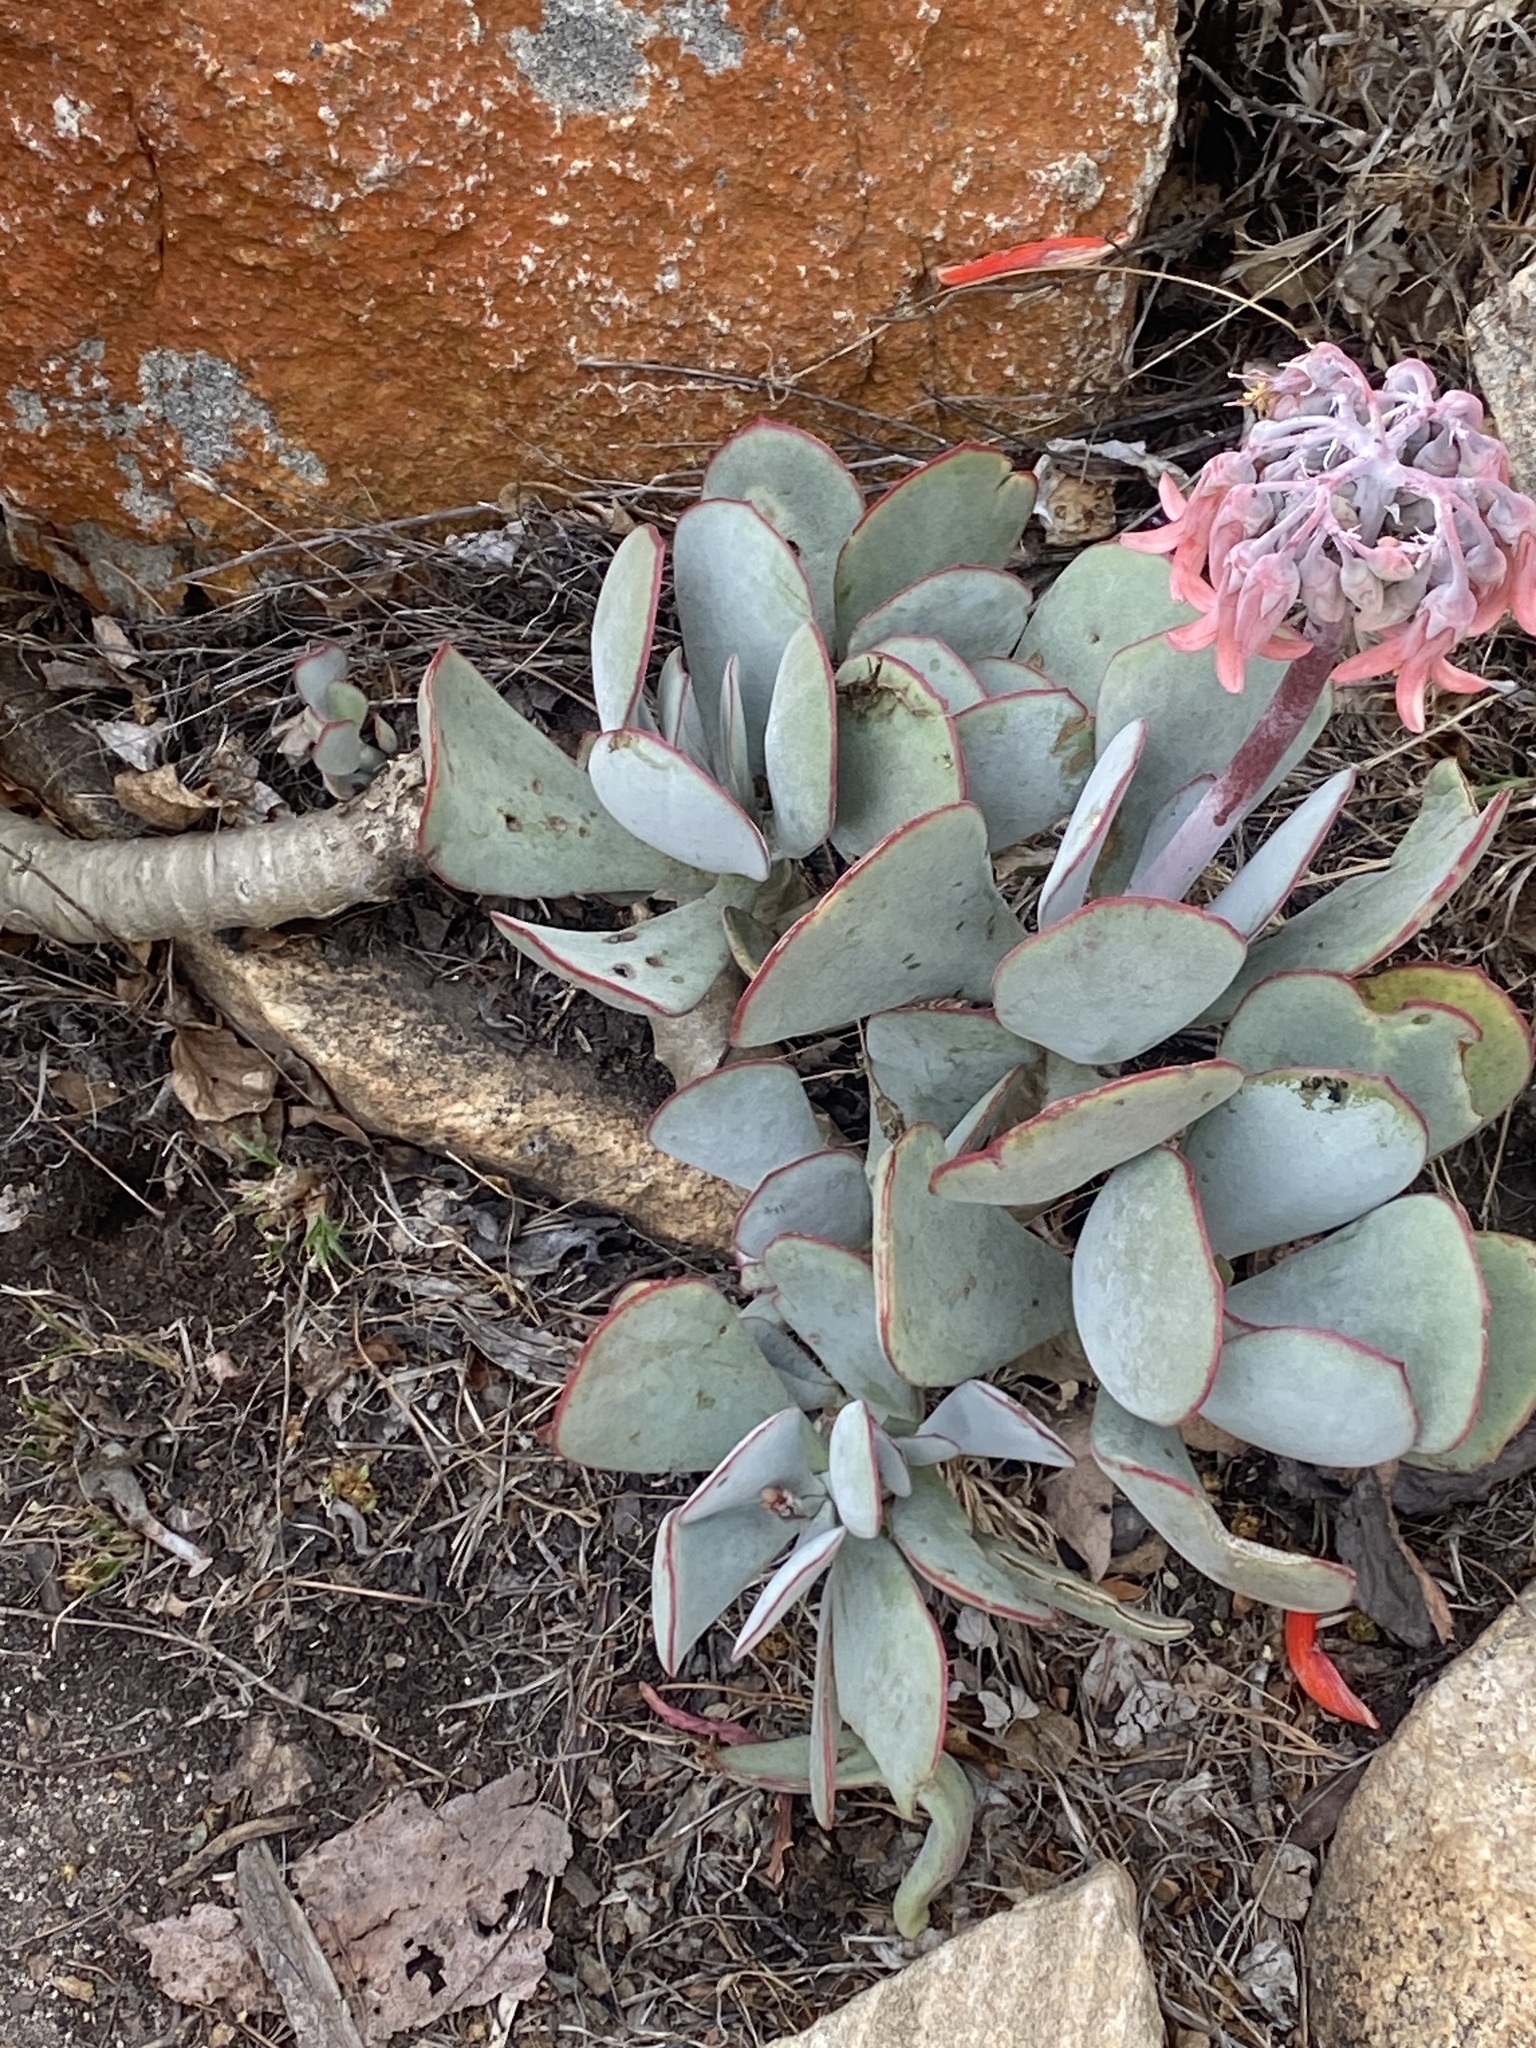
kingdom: Plantae
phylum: Tracheophyta
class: Magnoliopsida
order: Saxifragales
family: Crassulaceae
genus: Cotyledon
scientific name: Cotyledon orbiculata
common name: Pig's ear
